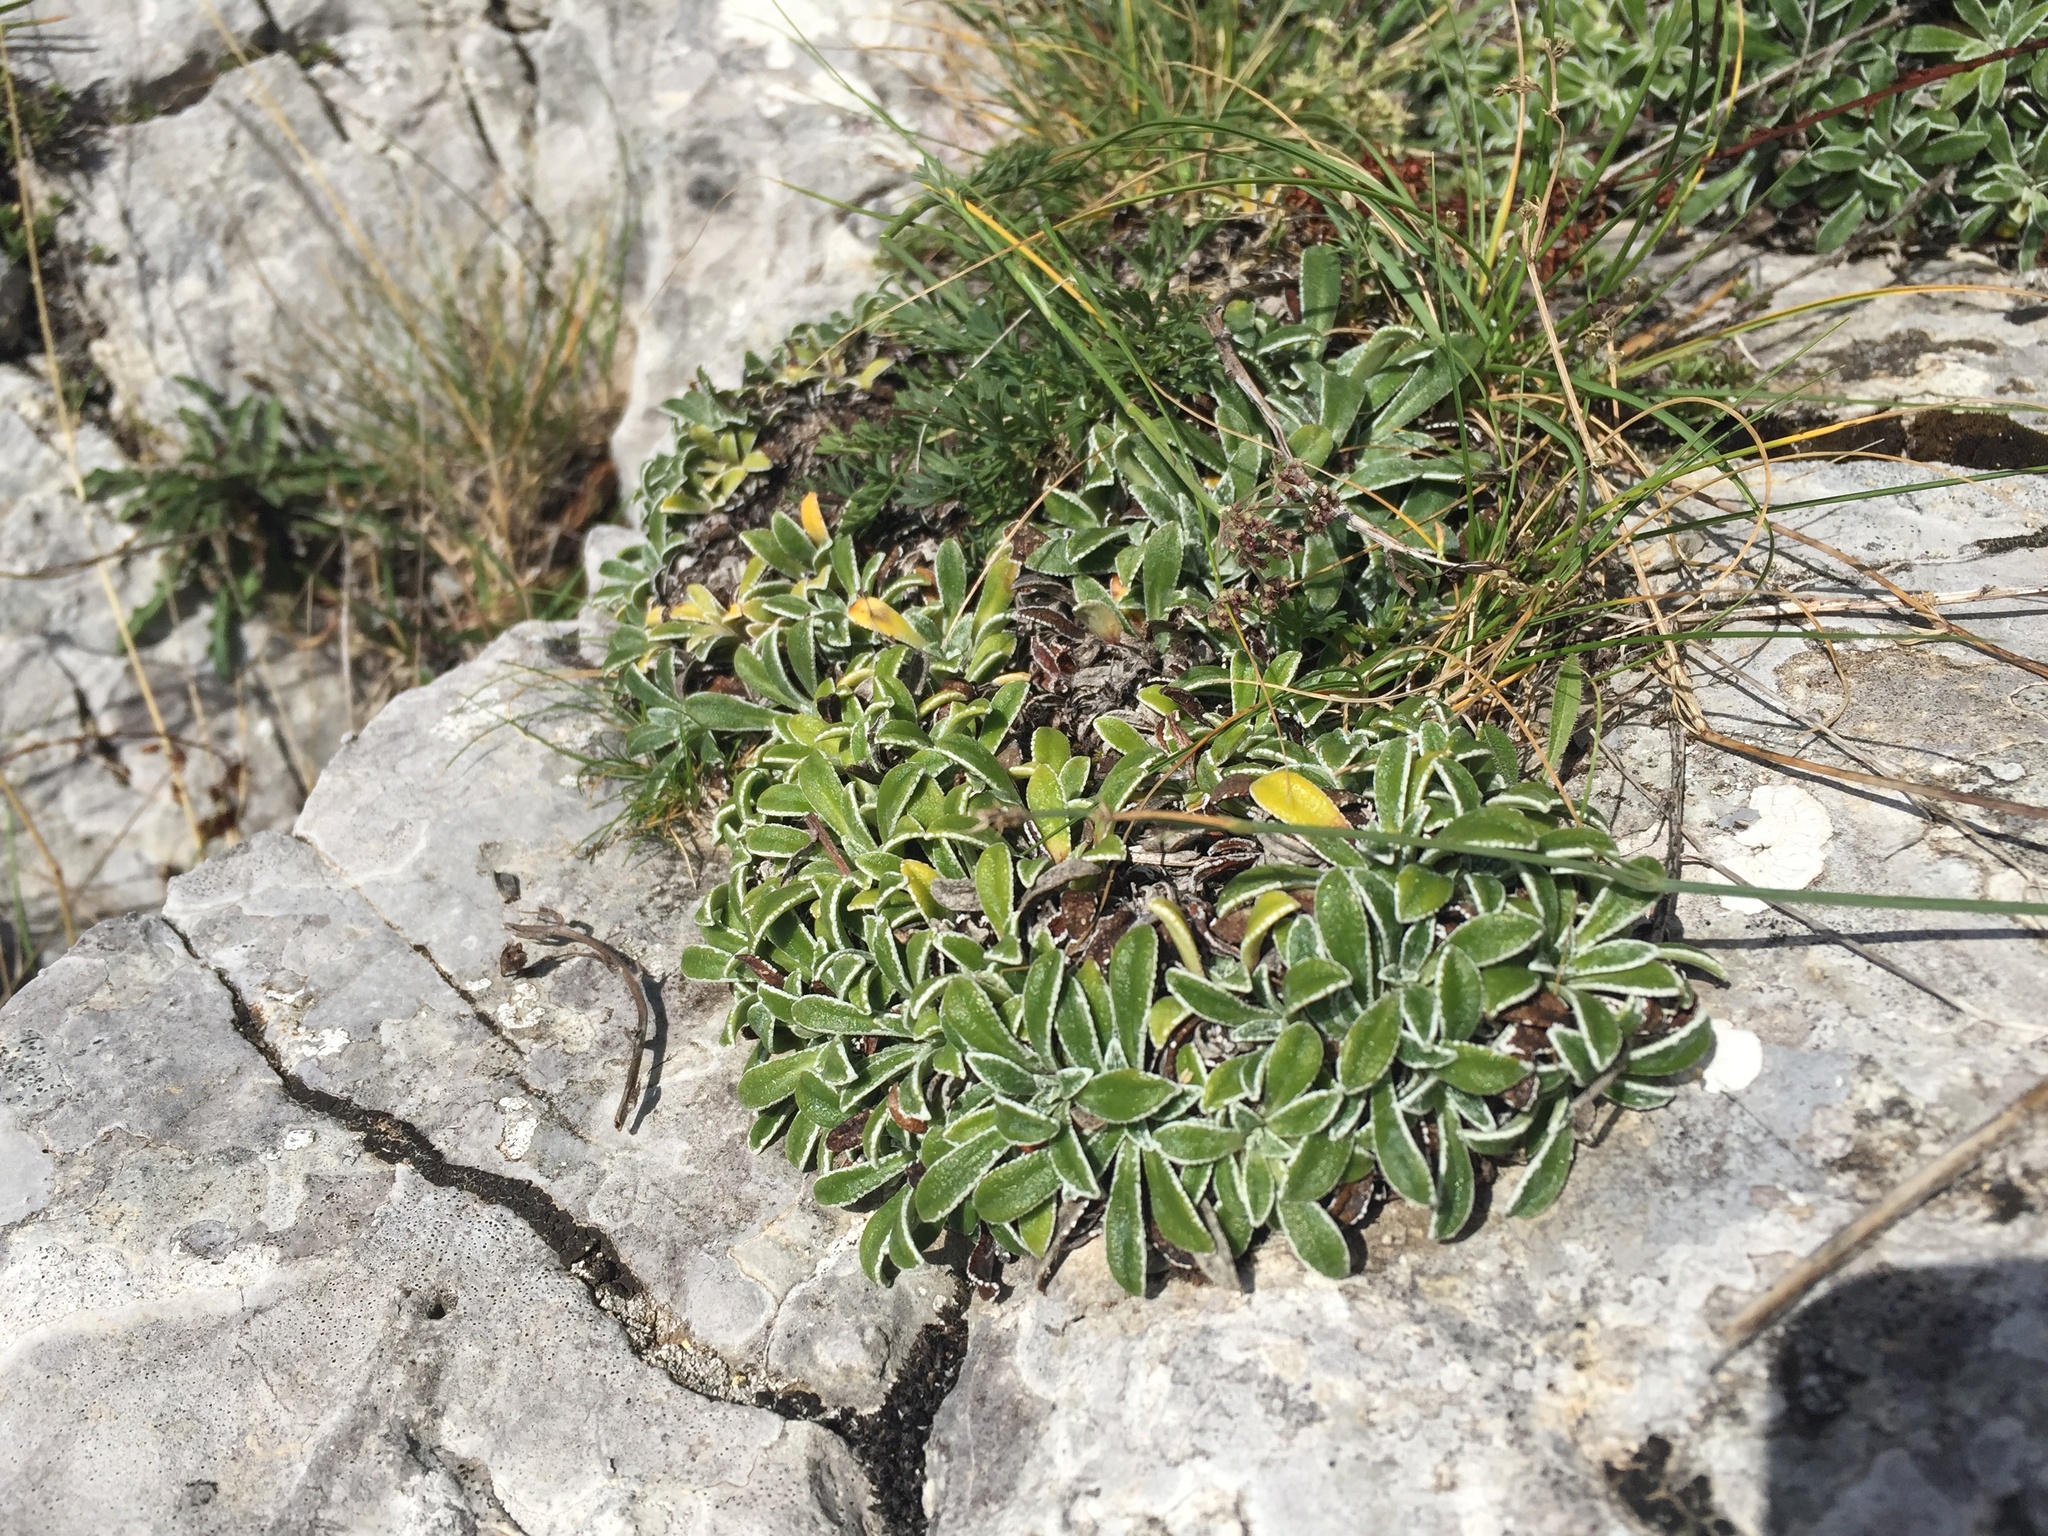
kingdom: Plantae
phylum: Tracheophyta
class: Magnoliopsida
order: Saxifragales
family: Saxifragaceae
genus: Saxifraga
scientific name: Saxifraga callosa
